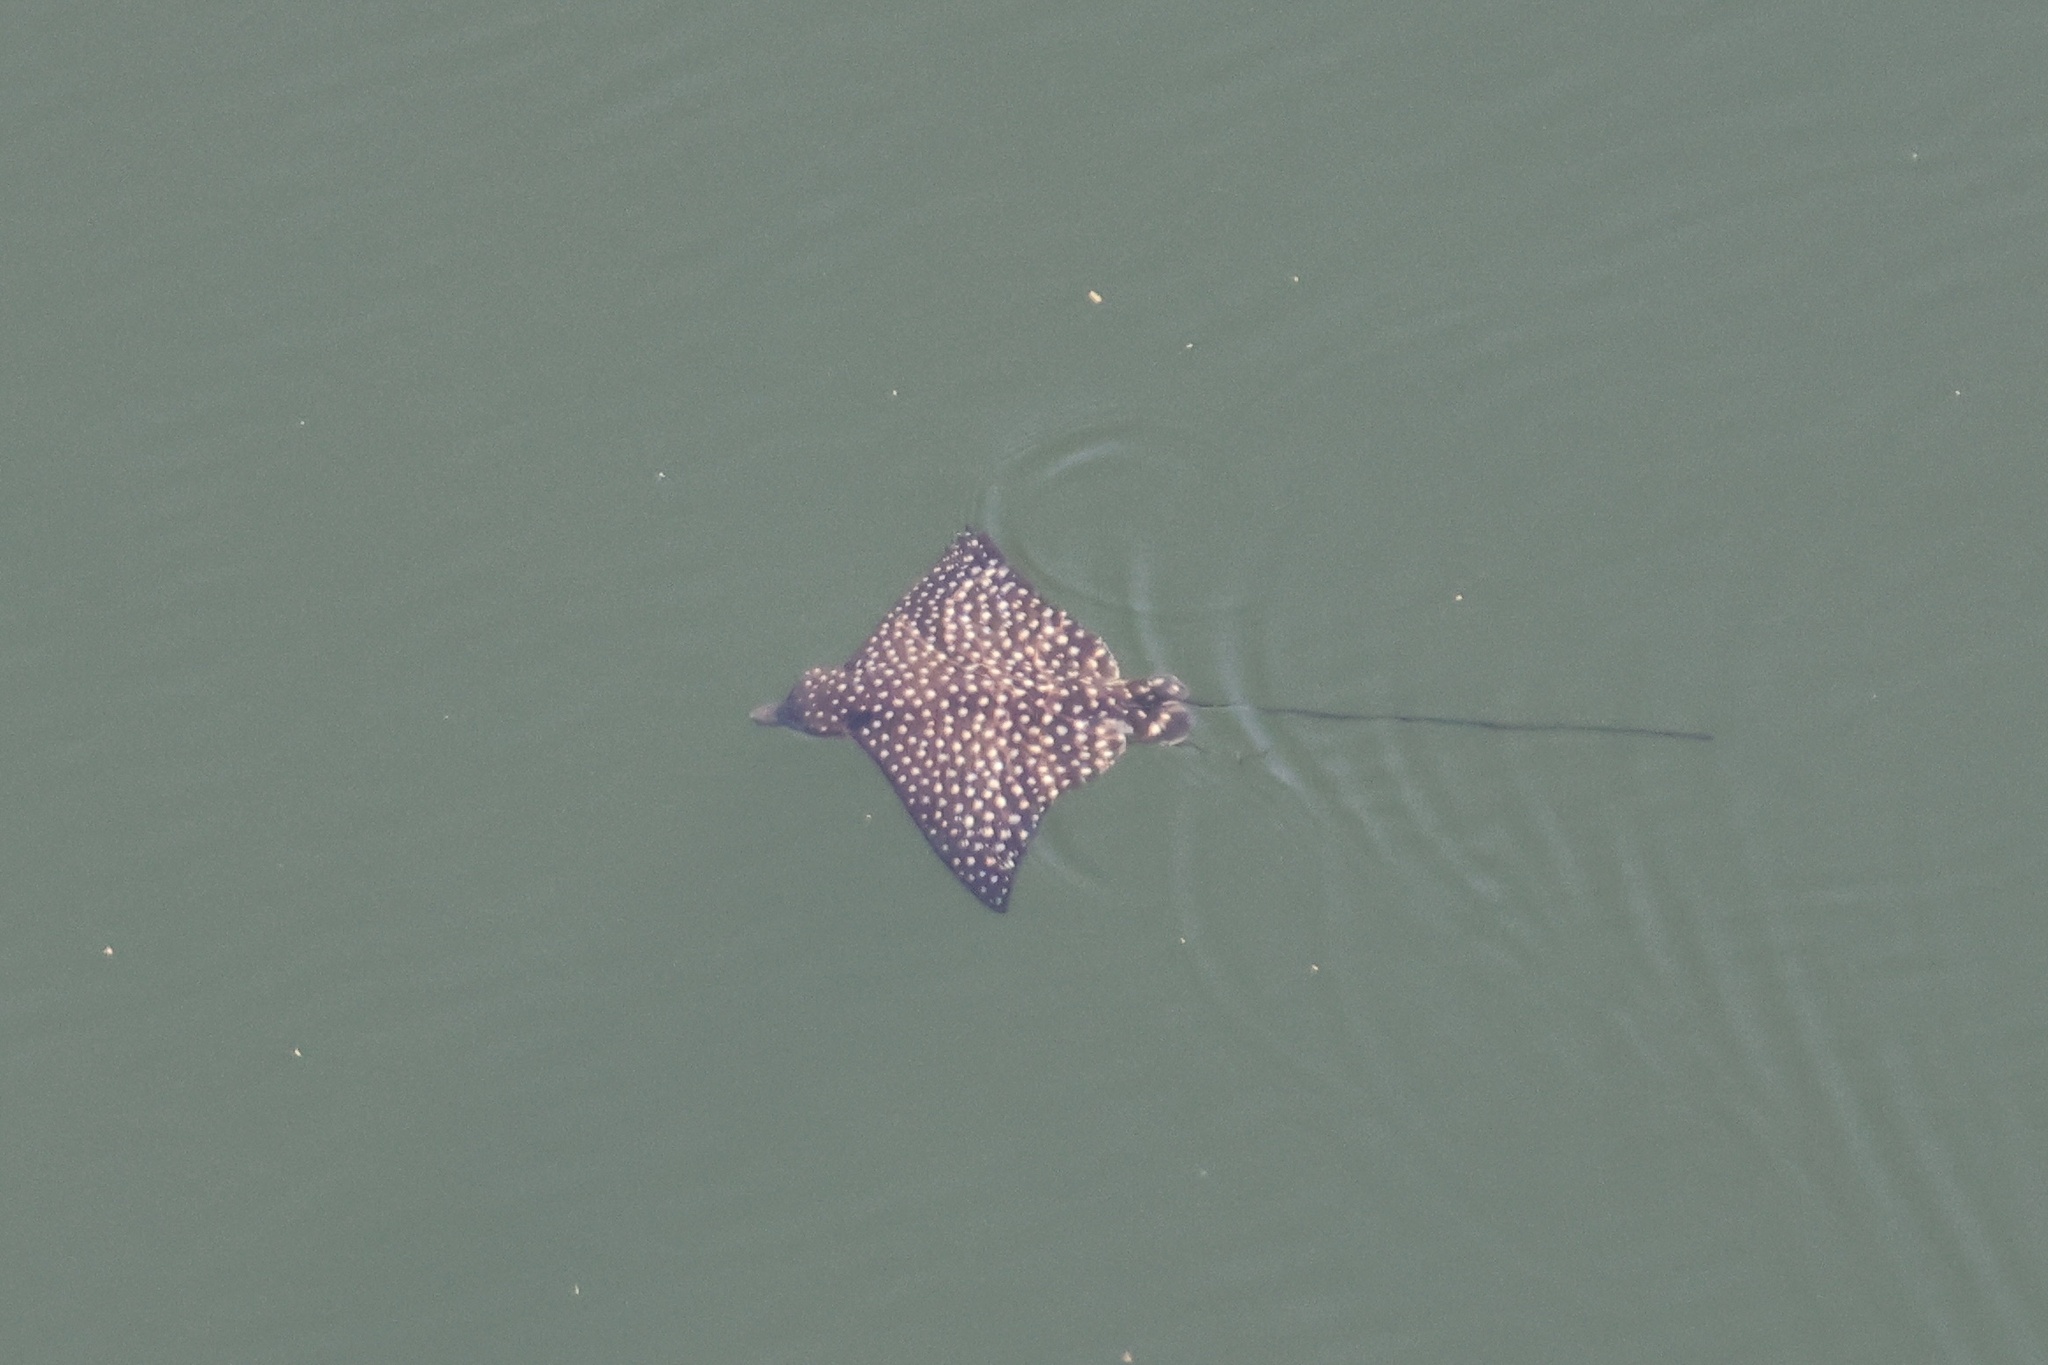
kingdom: Animalia
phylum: Chordata
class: Elasmobranchii
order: Myliobatiformes
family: Myliobatidae
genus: Aetobatus
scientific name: Aetobatus narinari
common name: Spotted eagle ray
